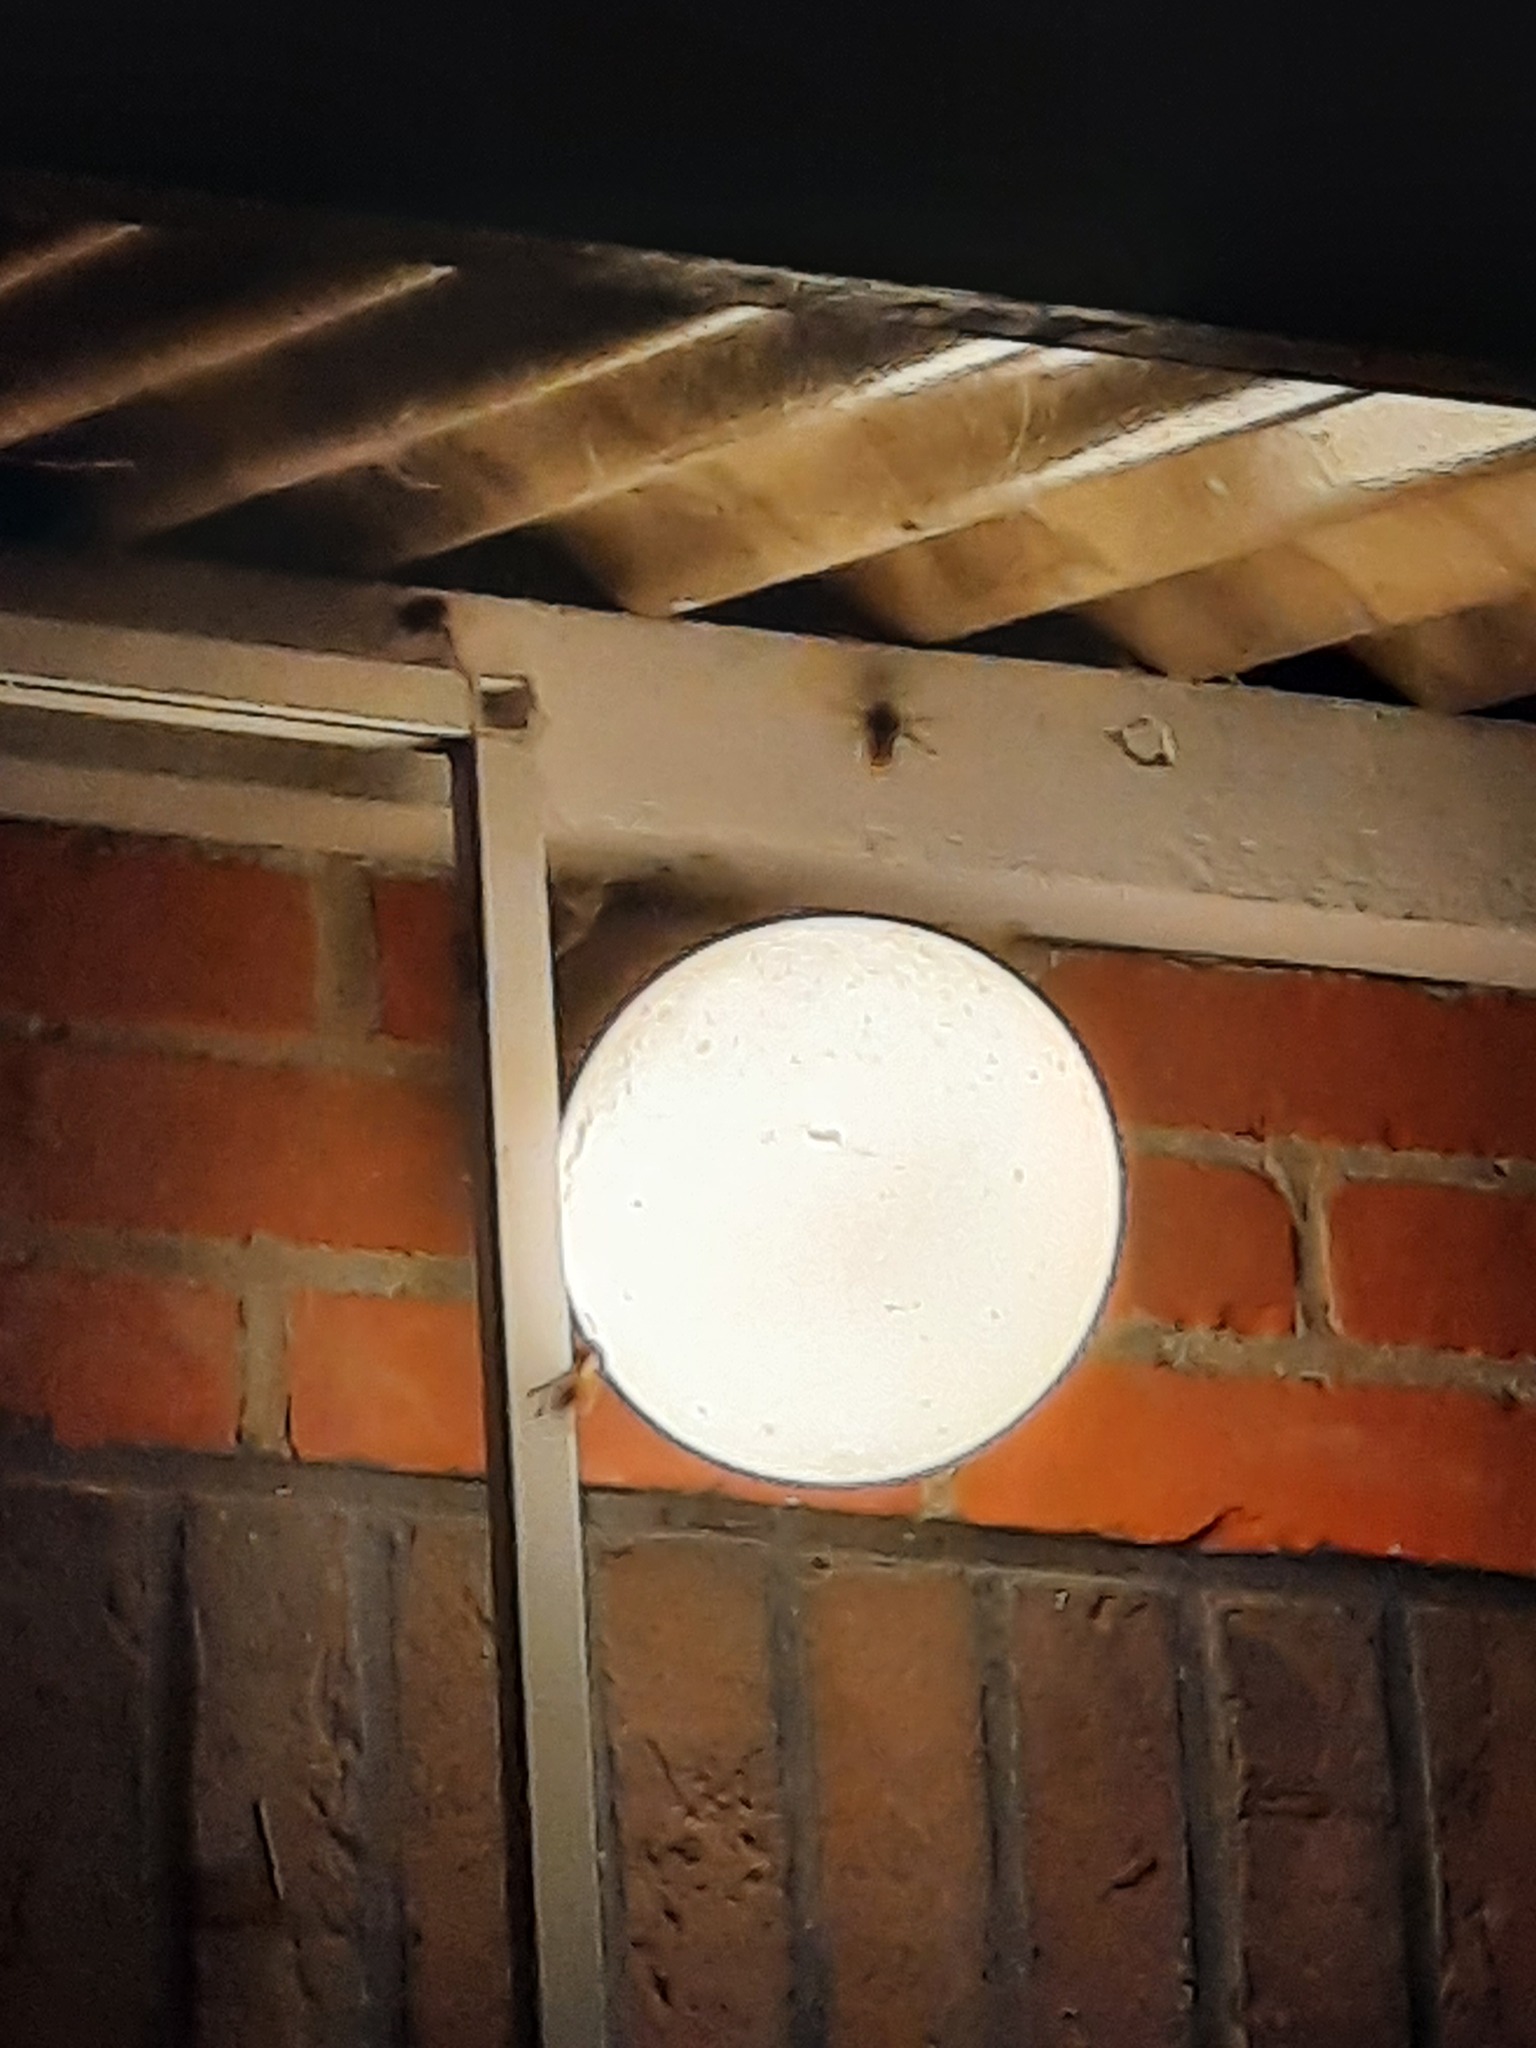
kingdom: Animalia
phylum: Arthropoda
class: Insecta
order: Hymenoptera
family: Vespidae
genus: Vespa
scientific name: Vespa crabro
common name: Hornet
